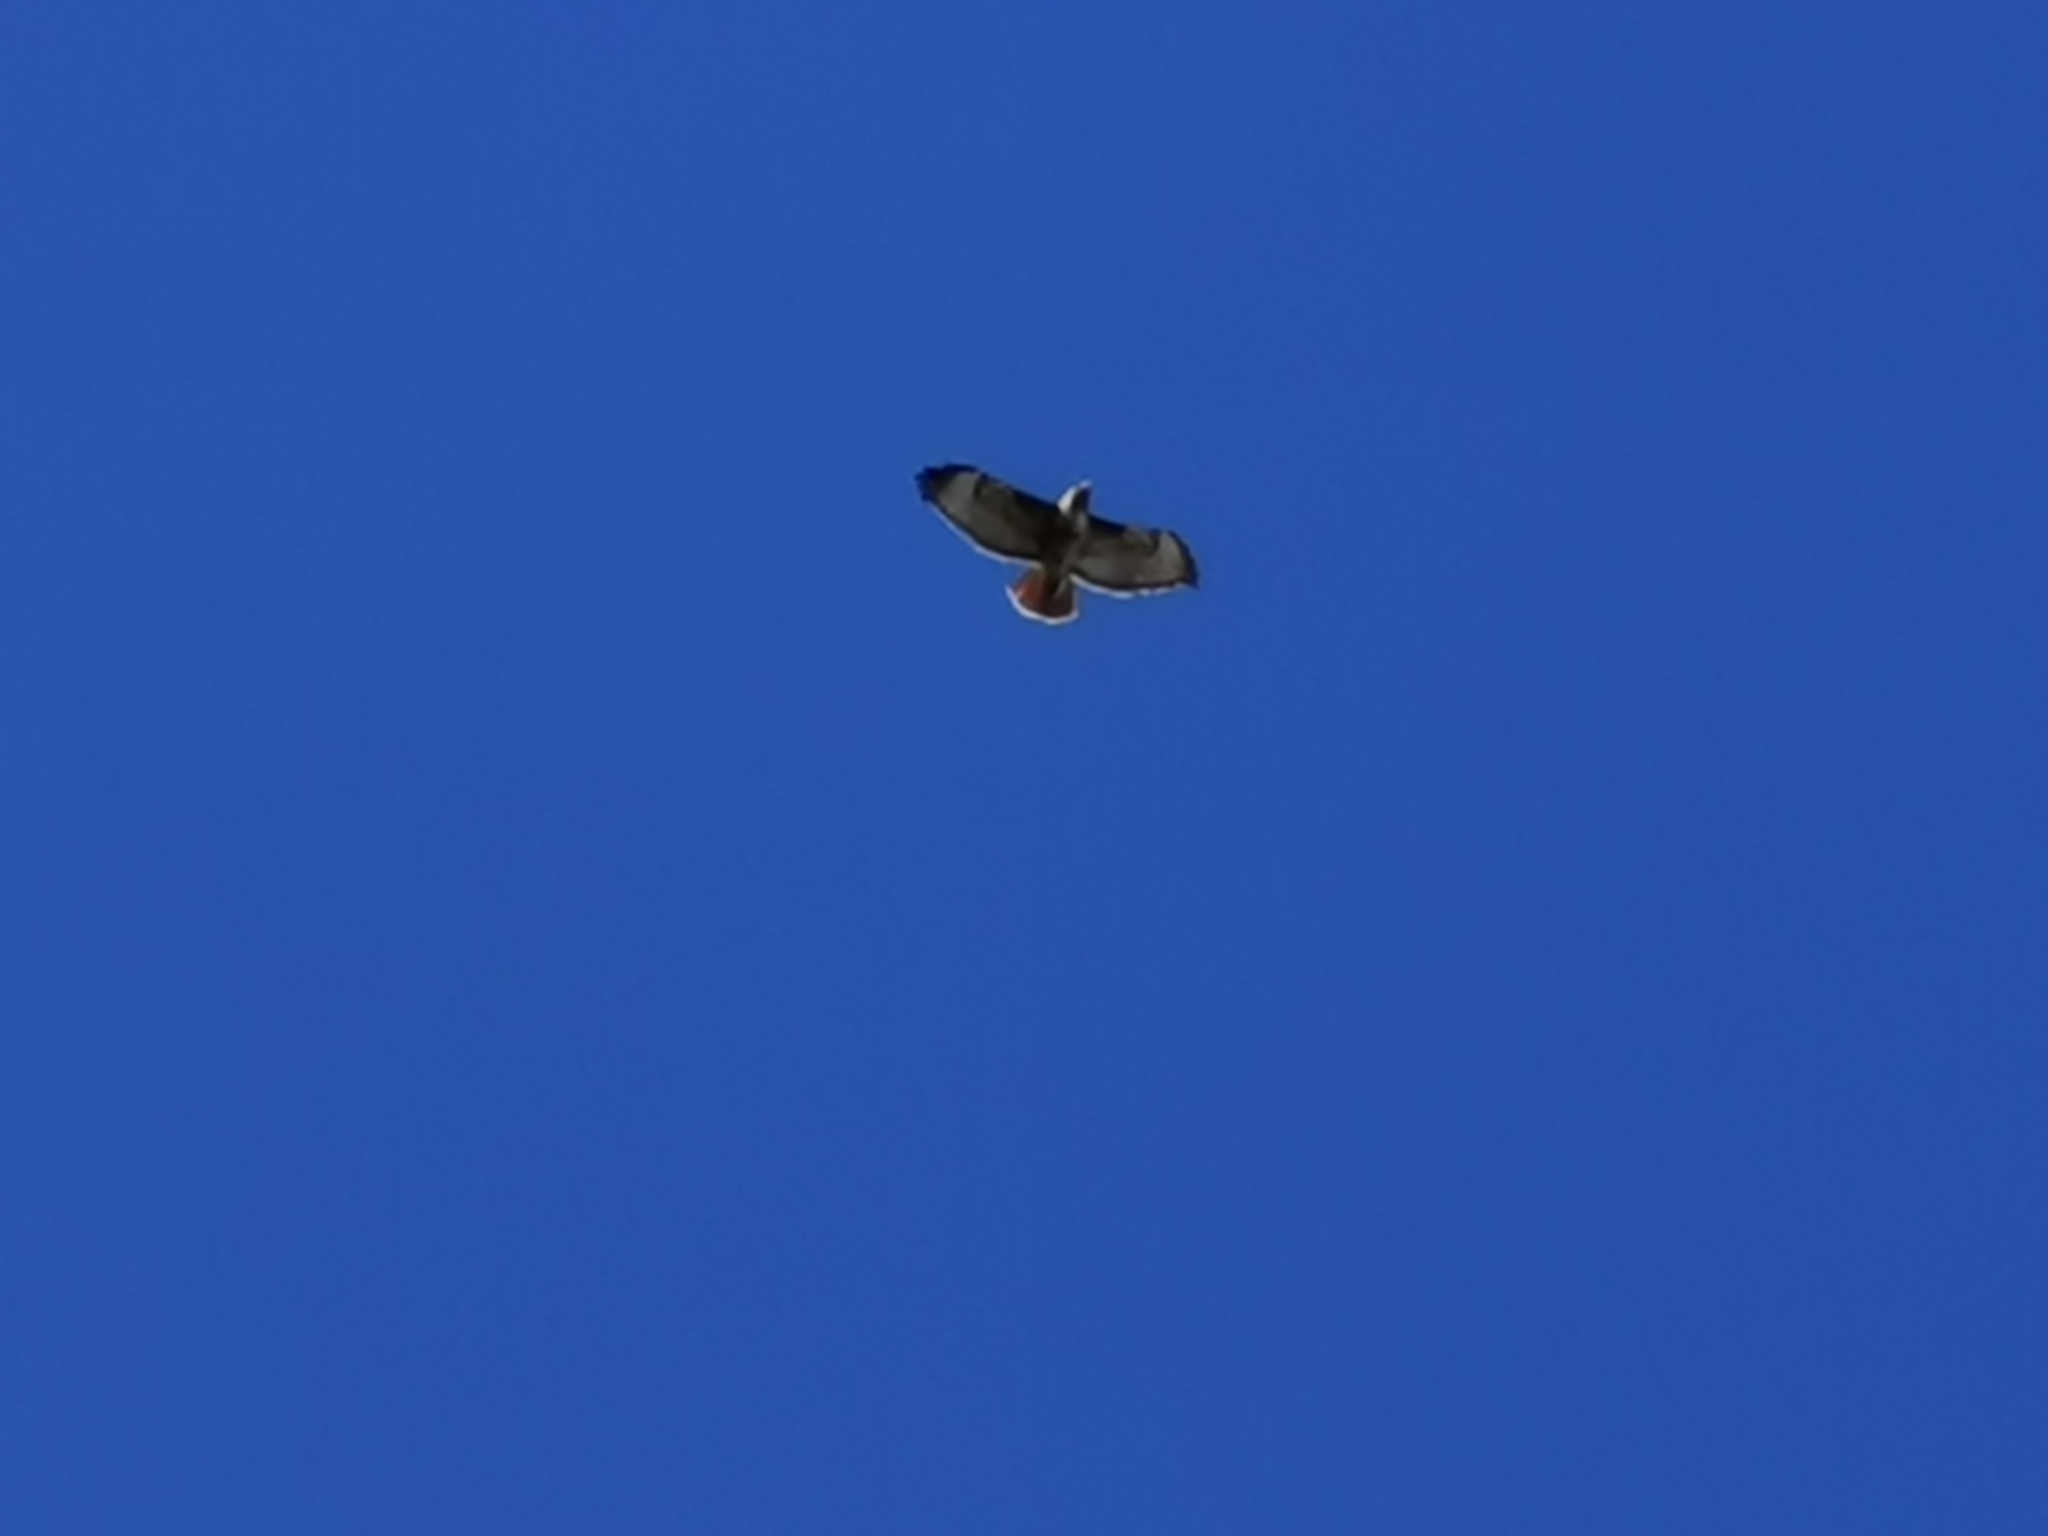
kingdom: Animalia
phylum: Chordata
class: Aves
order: Accipitriformes
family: Accipitridae
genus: Buteo
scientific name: Buteo jamaicensis
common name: Red-tailed hawk
